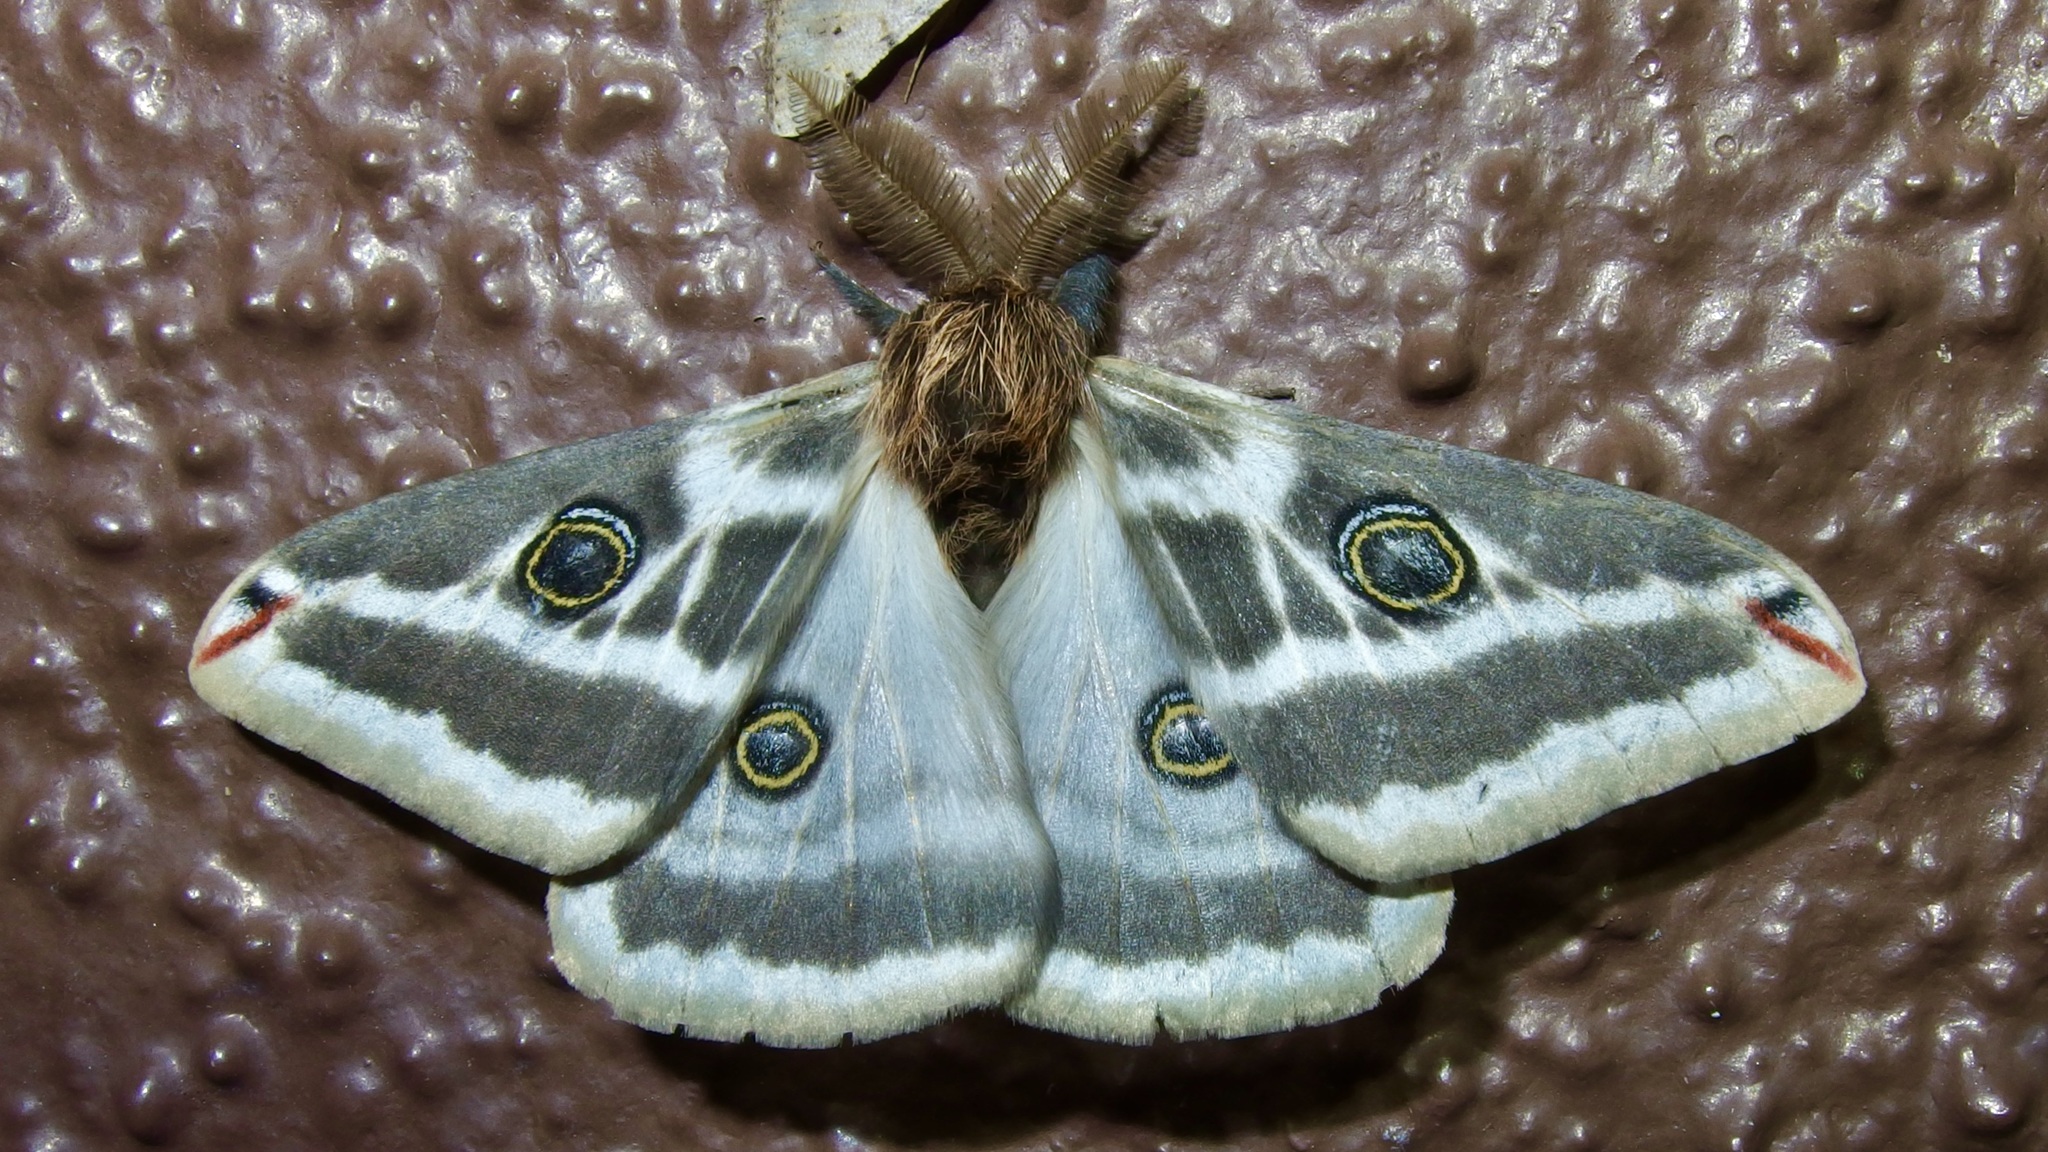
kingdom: Animalia
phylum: Arthropoda
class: Insecta
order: Lepidoptera
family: Saturniidae
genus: Saturnia
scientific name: Saturnia anona
